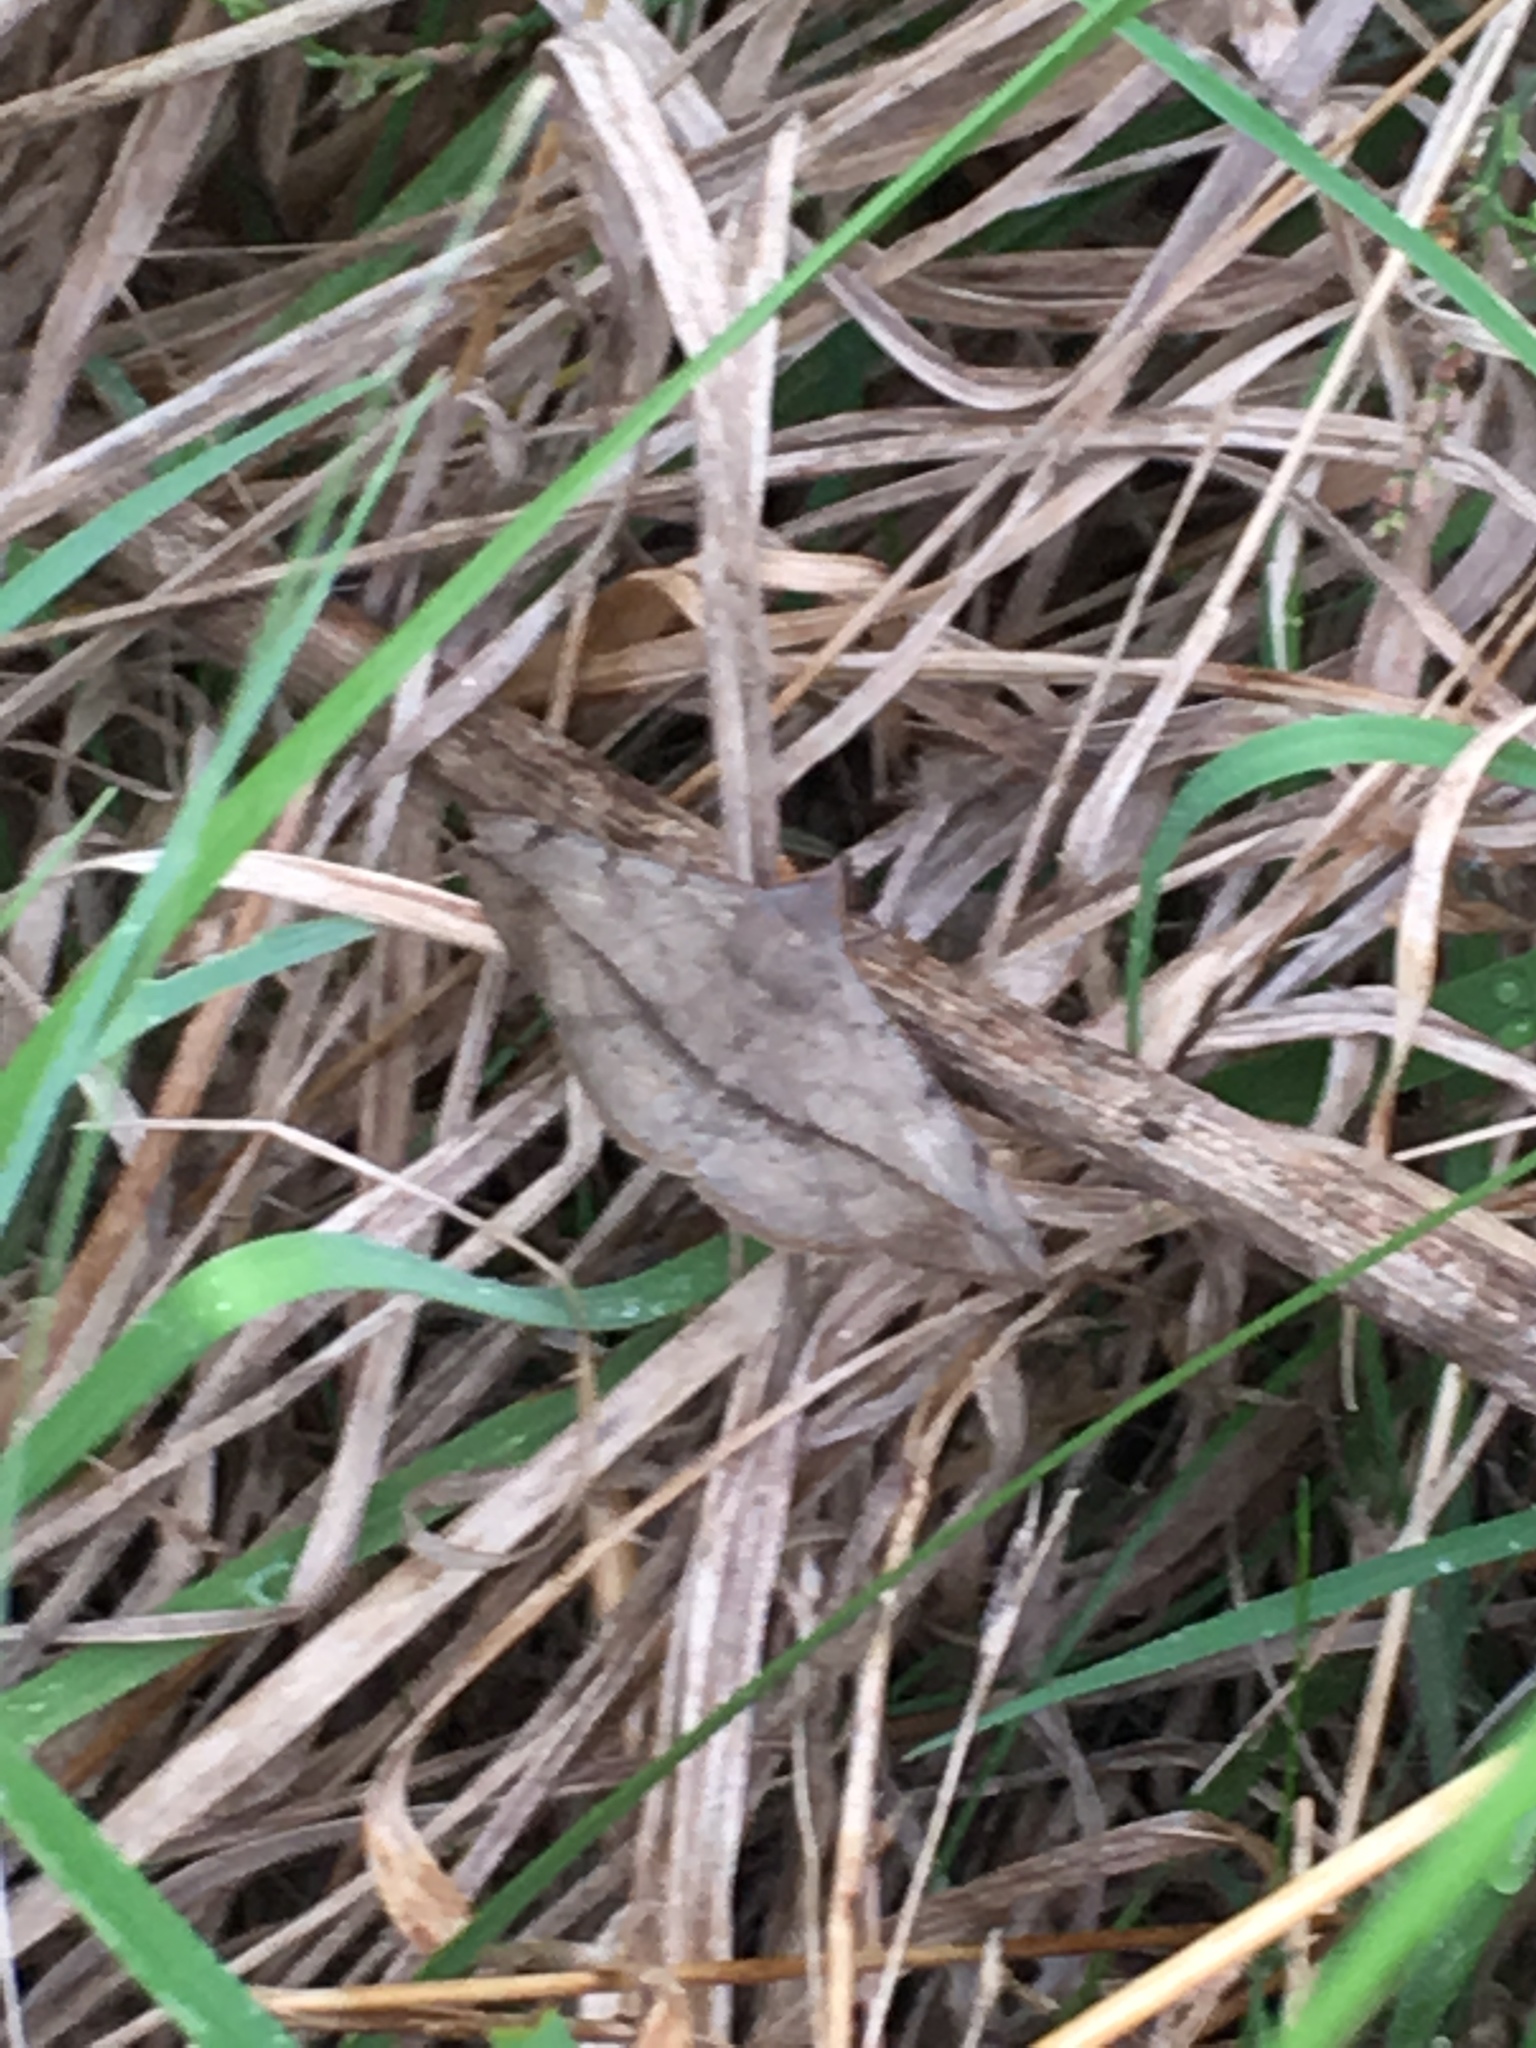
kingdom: Animalia
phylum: Arthropoda
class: Insecta
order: Lepidoptera
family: Erebidae
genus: Anticarsia
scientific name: Anticarsia gemmatalis
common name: Cutworm moth
